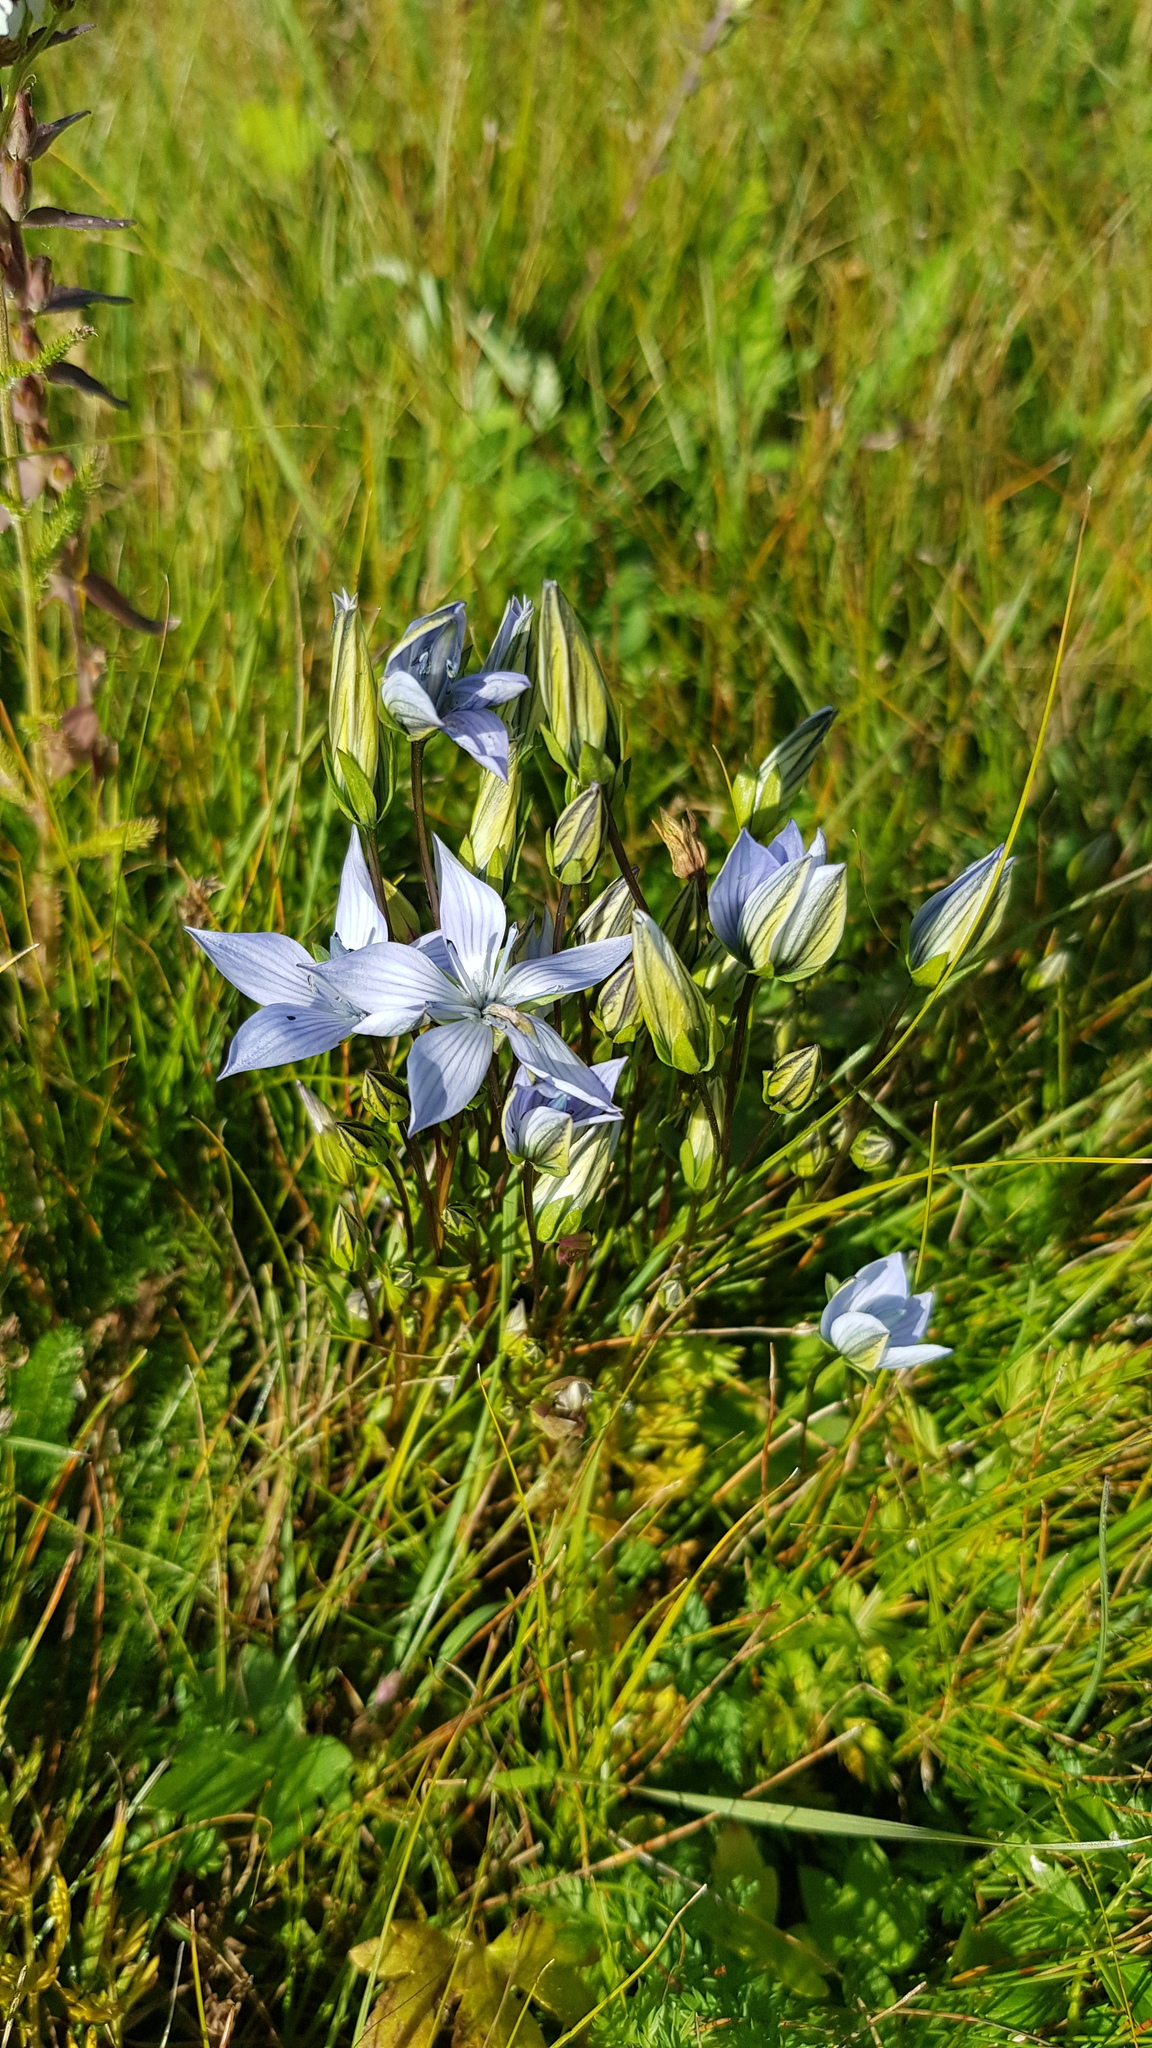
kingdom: Plantae
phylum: Tracheophyta
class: Magnoliopsida
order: Gentianales
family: Gentianaceae
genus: Lomatogonium
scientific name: Lomatogonium carinthiacum
